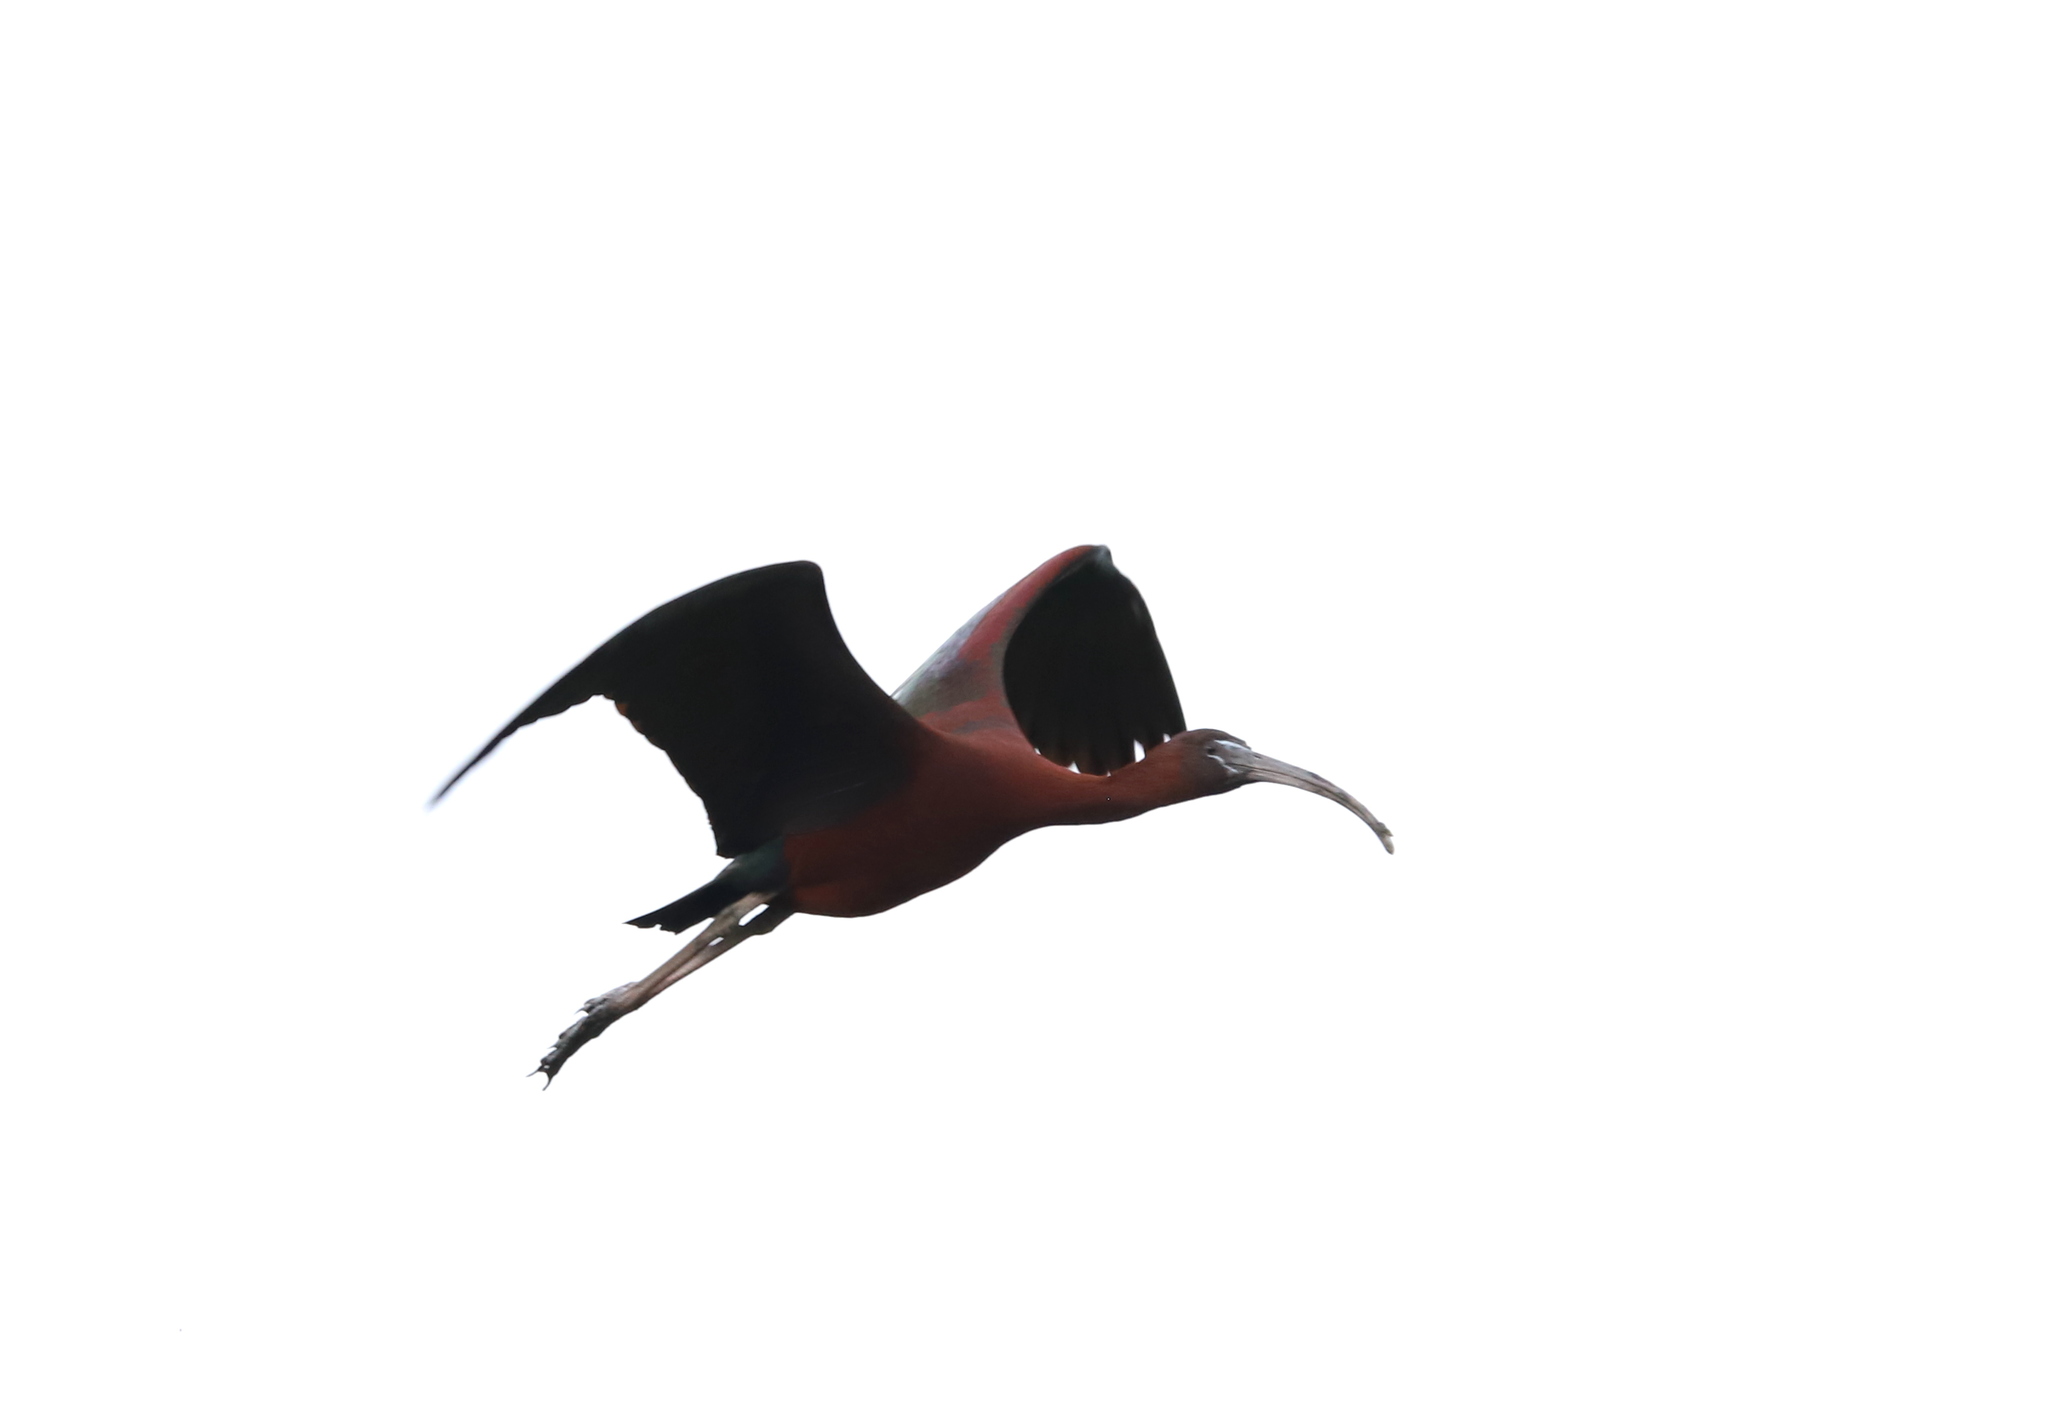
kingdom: Animalia
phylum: Chordata
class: Aves
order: Pelecaniformes
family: Threskiornithidae
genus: Plegadis
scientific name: Plegadis falcinellus
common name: Glossy ibis
